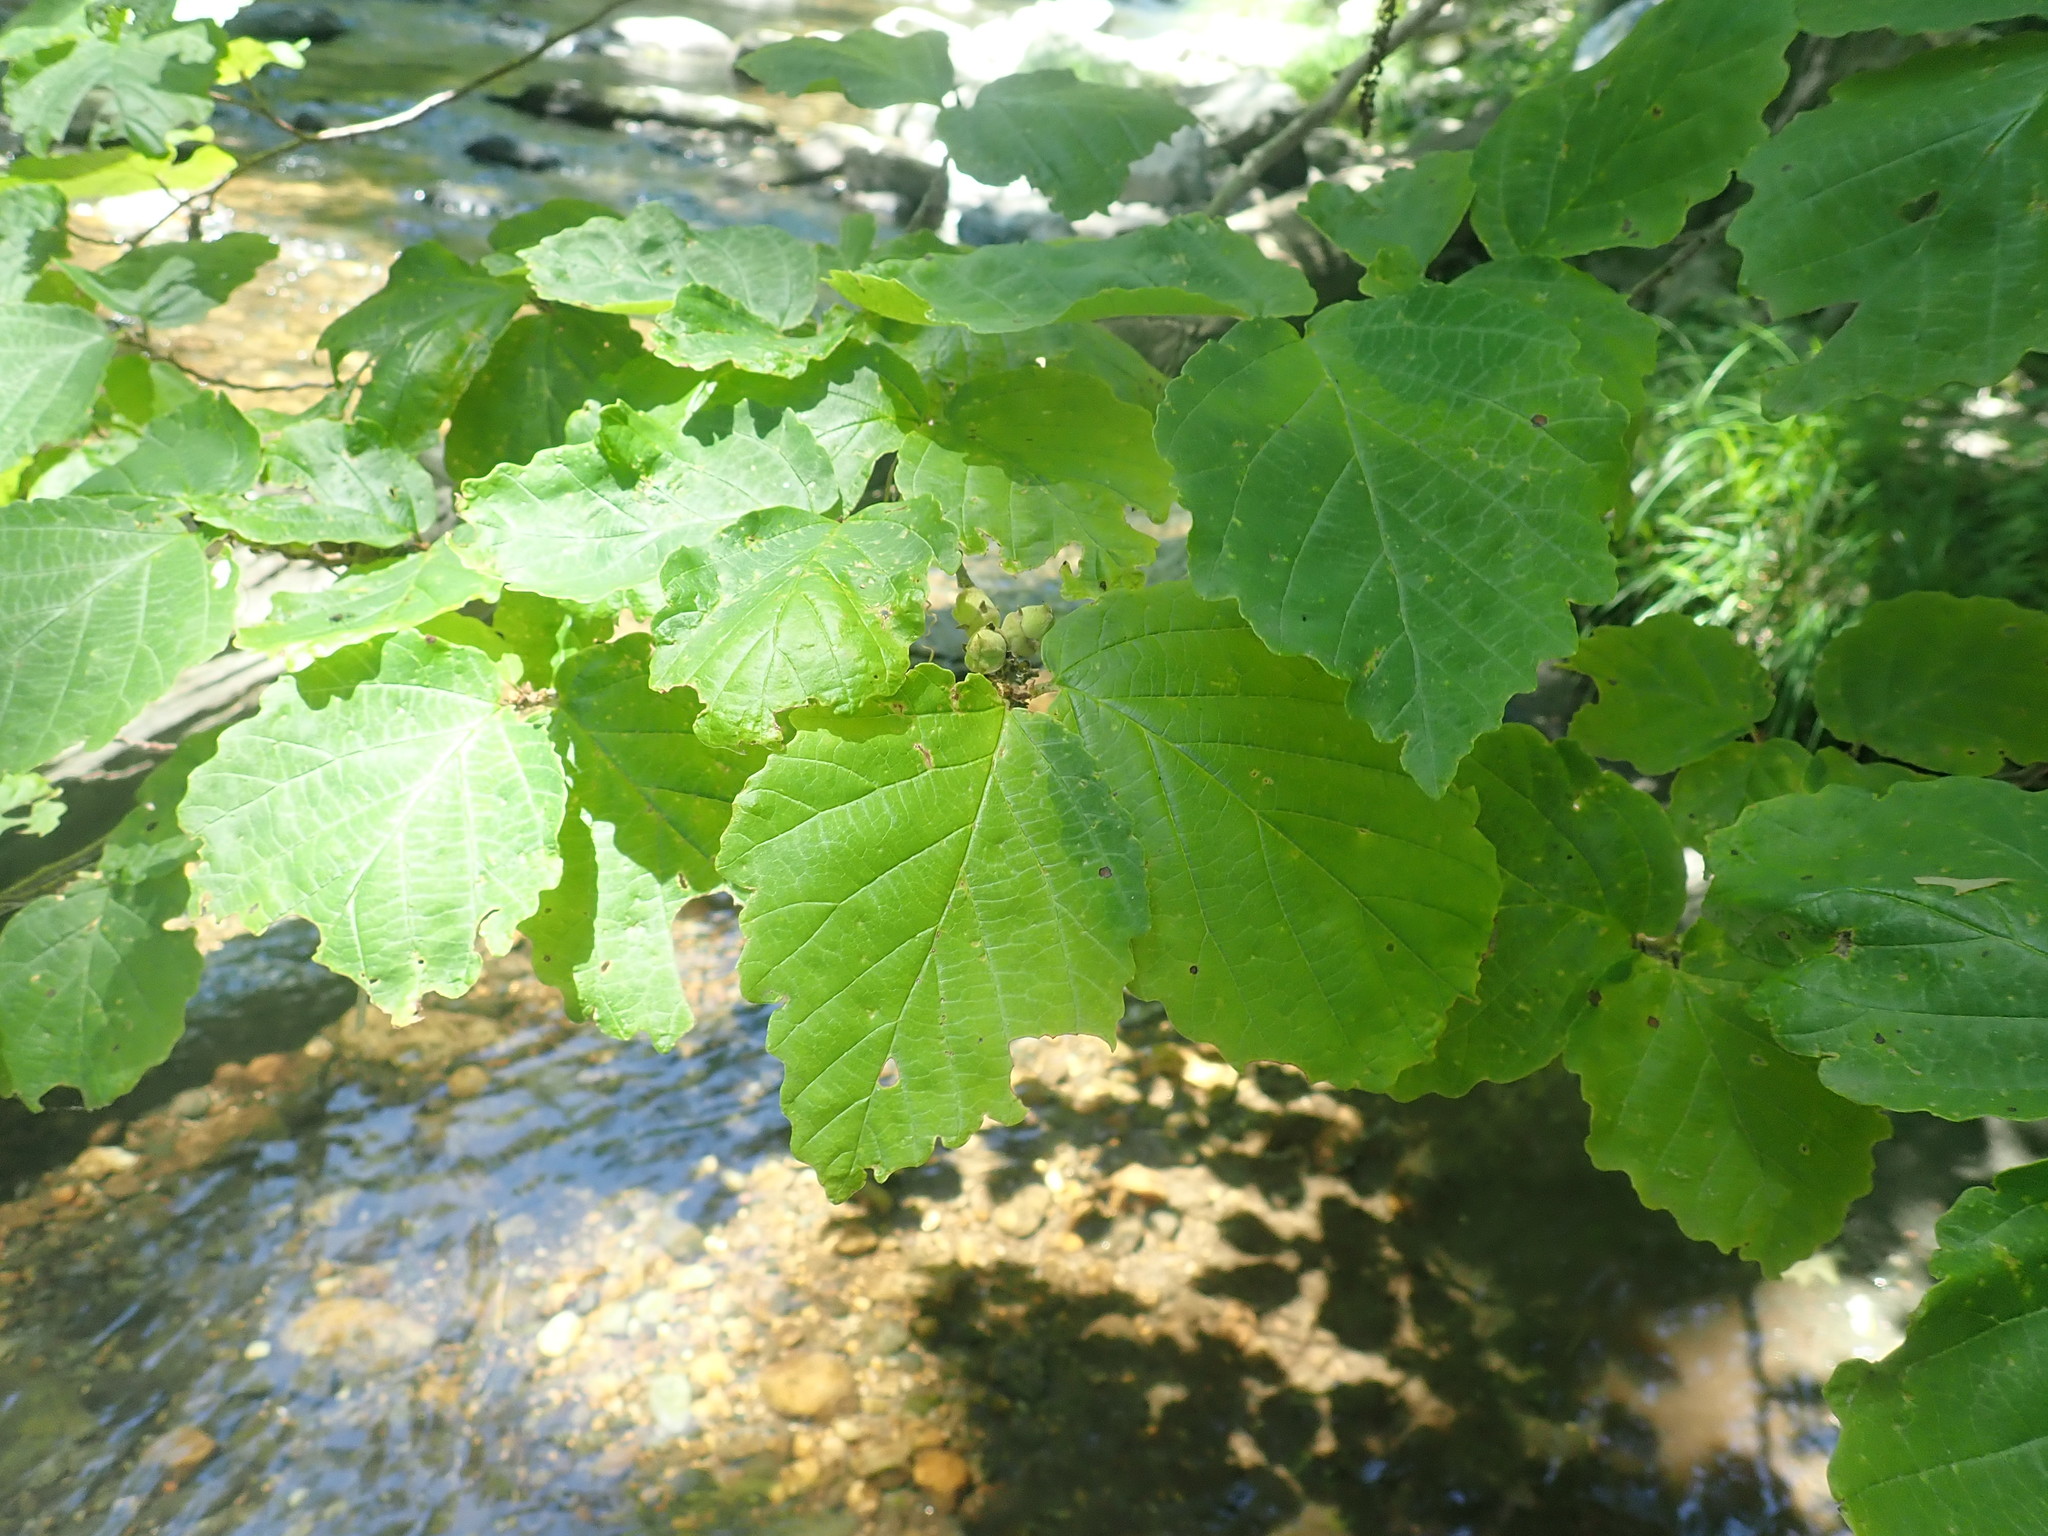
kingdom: Plantae
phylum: Tracheophyta
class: Magnoliopsida
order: Saxifragales
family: Hamamelidaceae
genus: Hamamelis
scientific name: Hamamelis virginiana
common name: Witch-hazel
